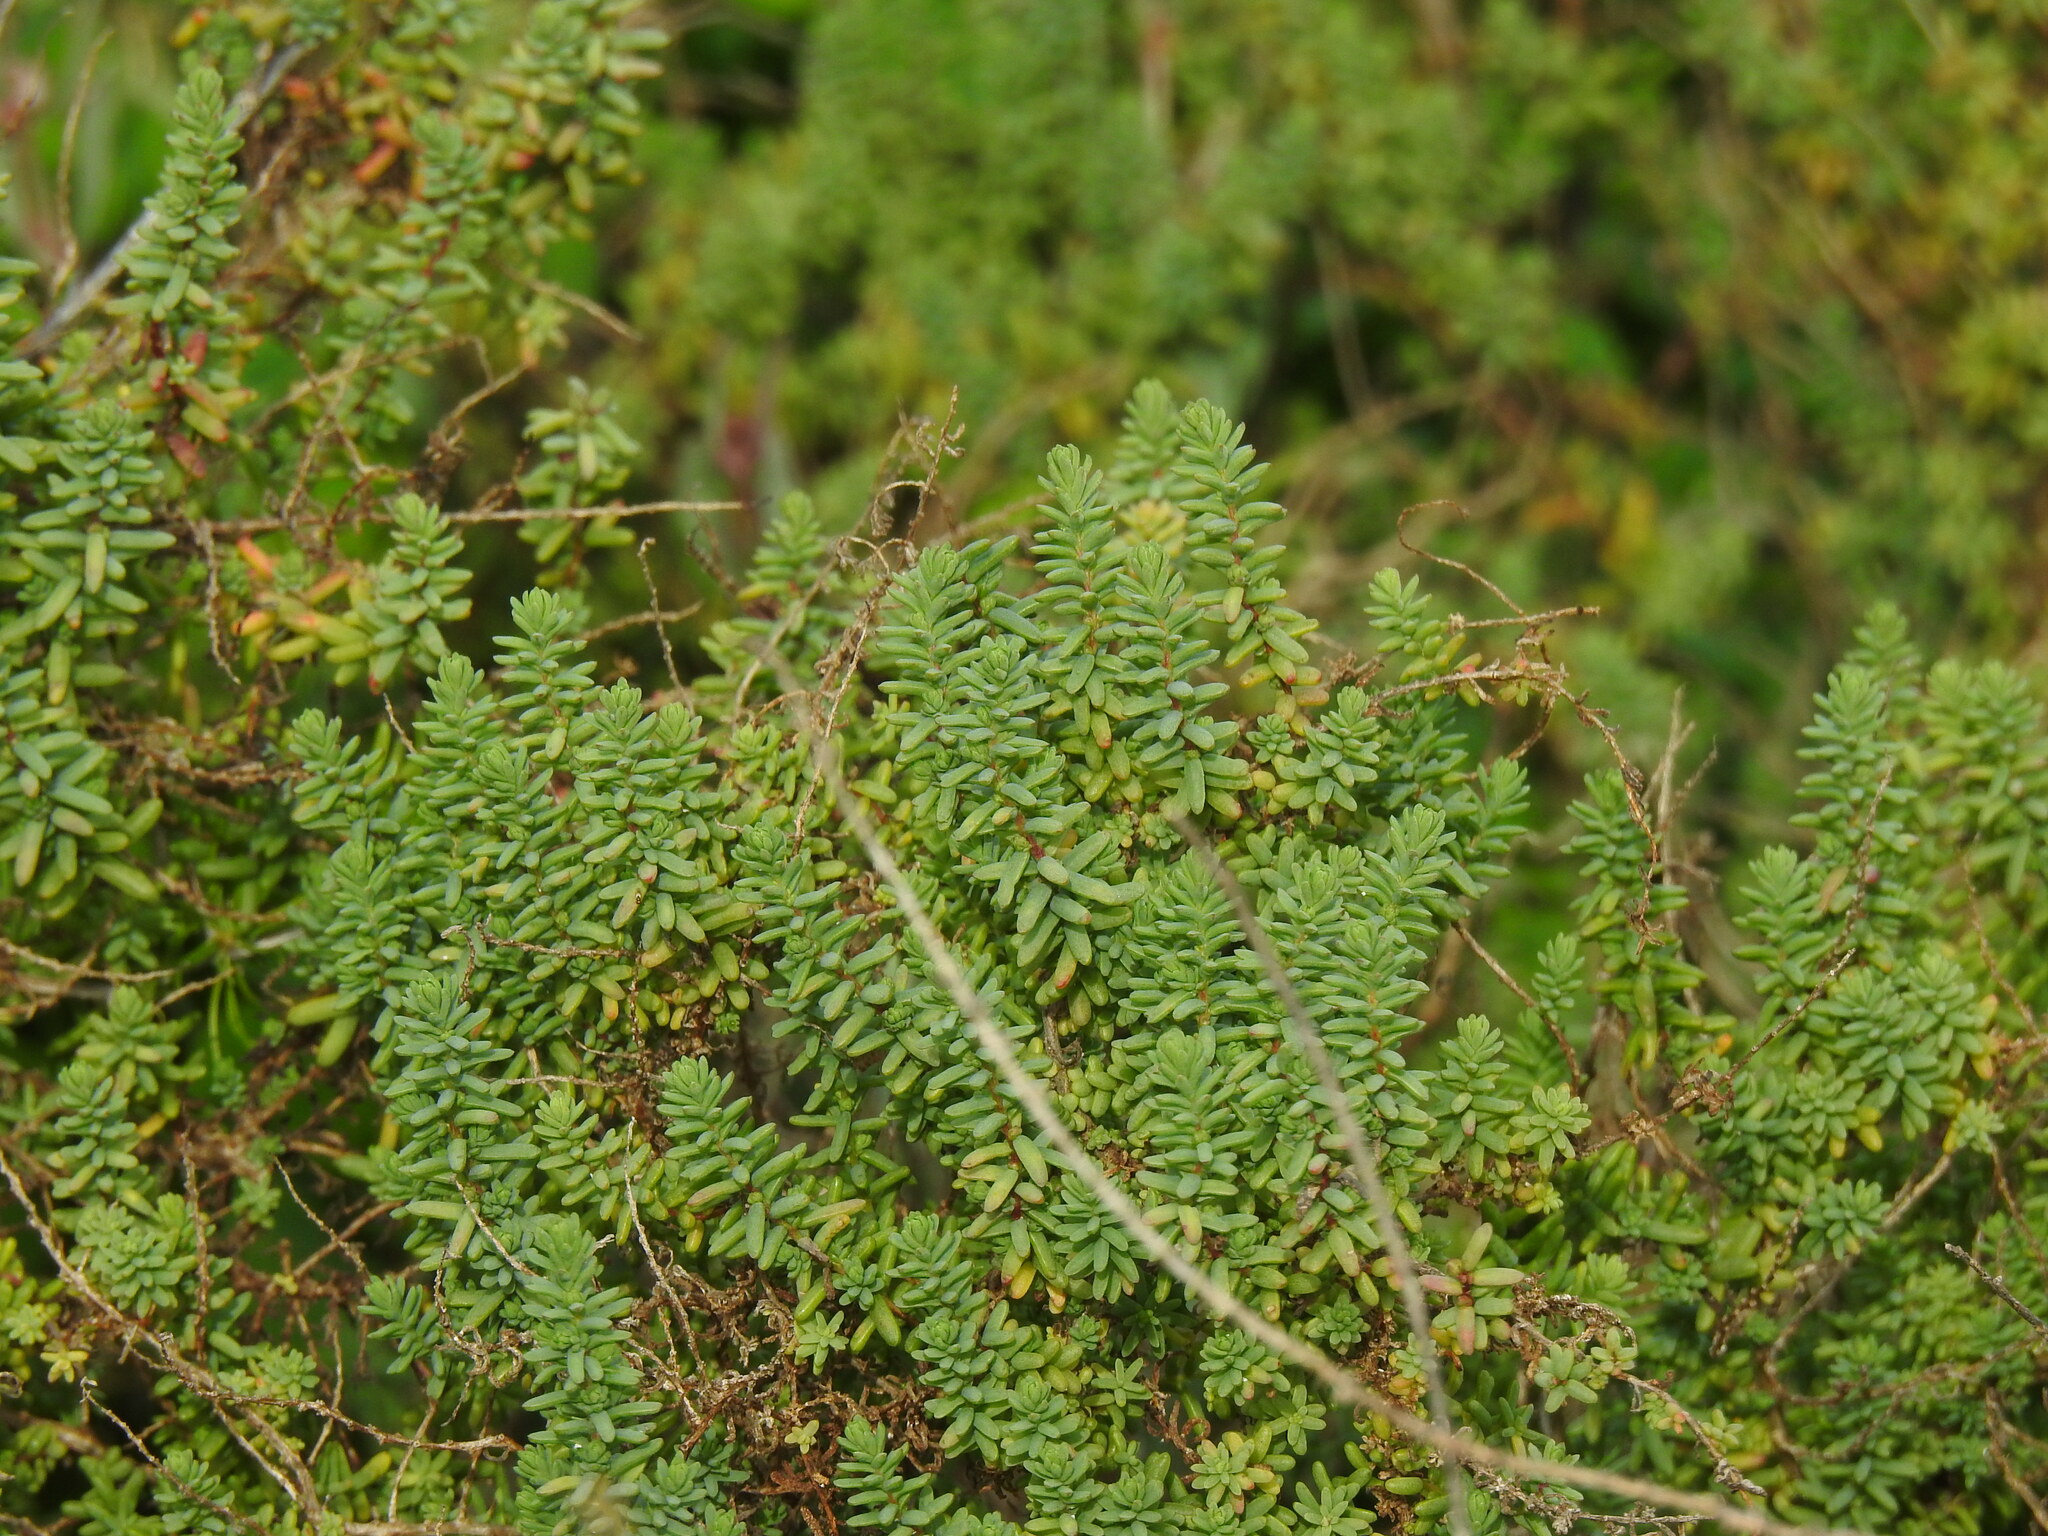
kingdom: Plantae
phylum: Tracheophyta
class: Magnoliopsida
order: Caryophyllales
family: Amaranthaceae
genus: Suaeda
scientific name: Suaeda vera
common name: Shrubby sea-blite
